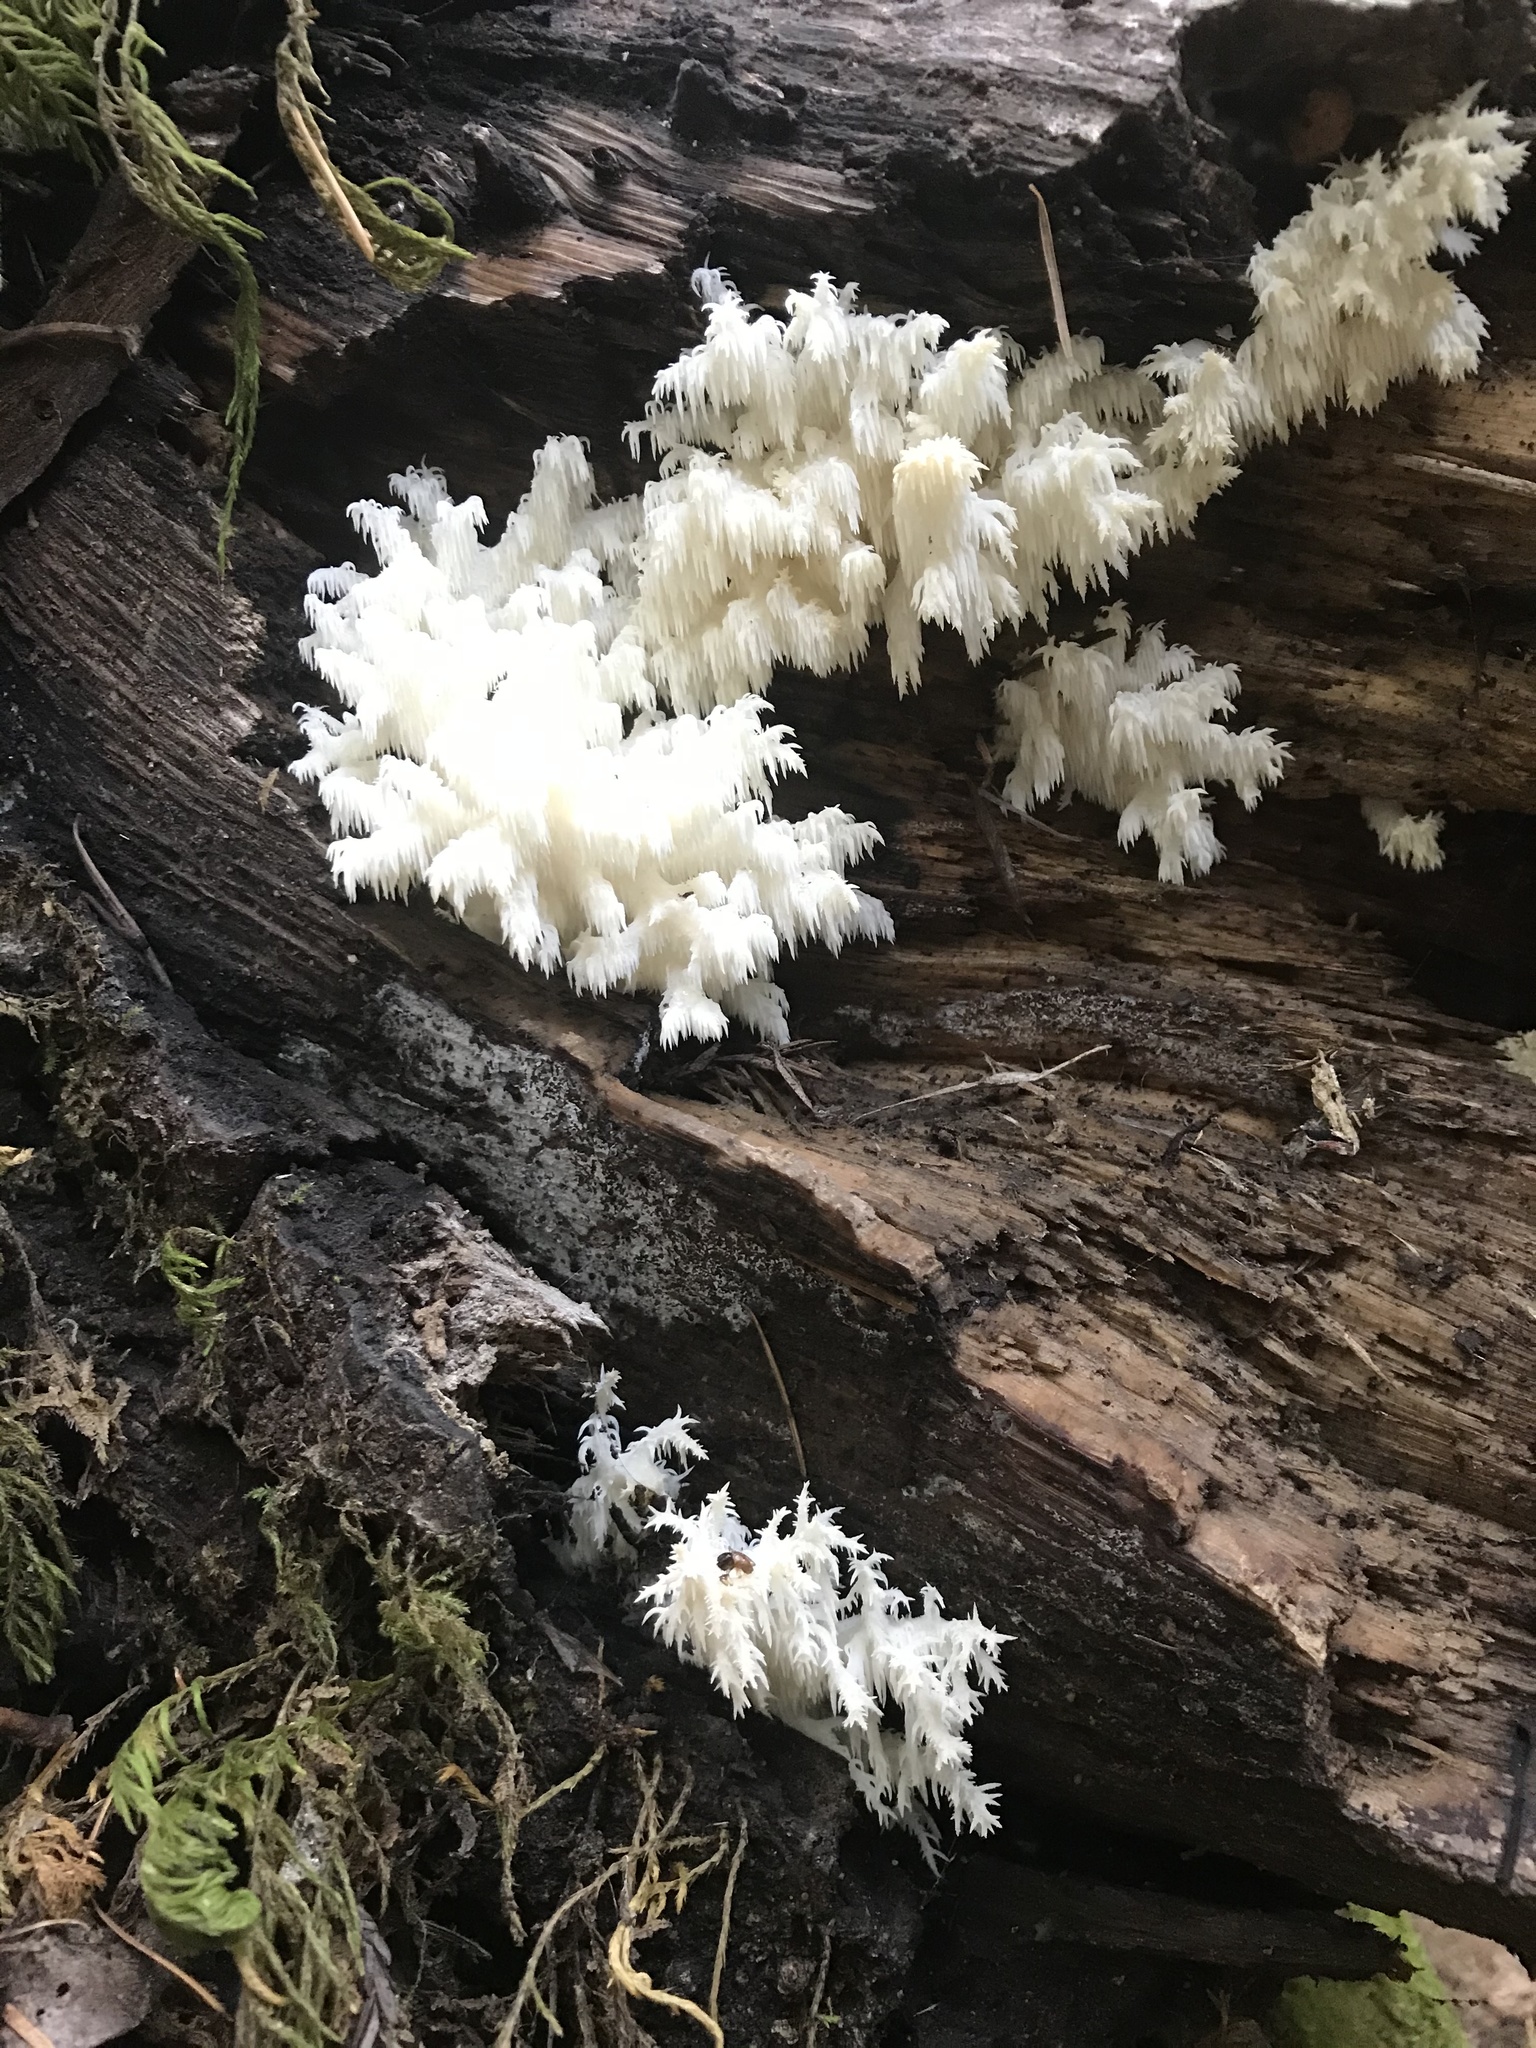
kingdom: Fungi
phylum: Basidiomycota
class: Agaricomycetes
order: Russulales
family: Hericiaceae
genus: Hericium
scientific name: Hericium coralloides
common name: Coral tooth
